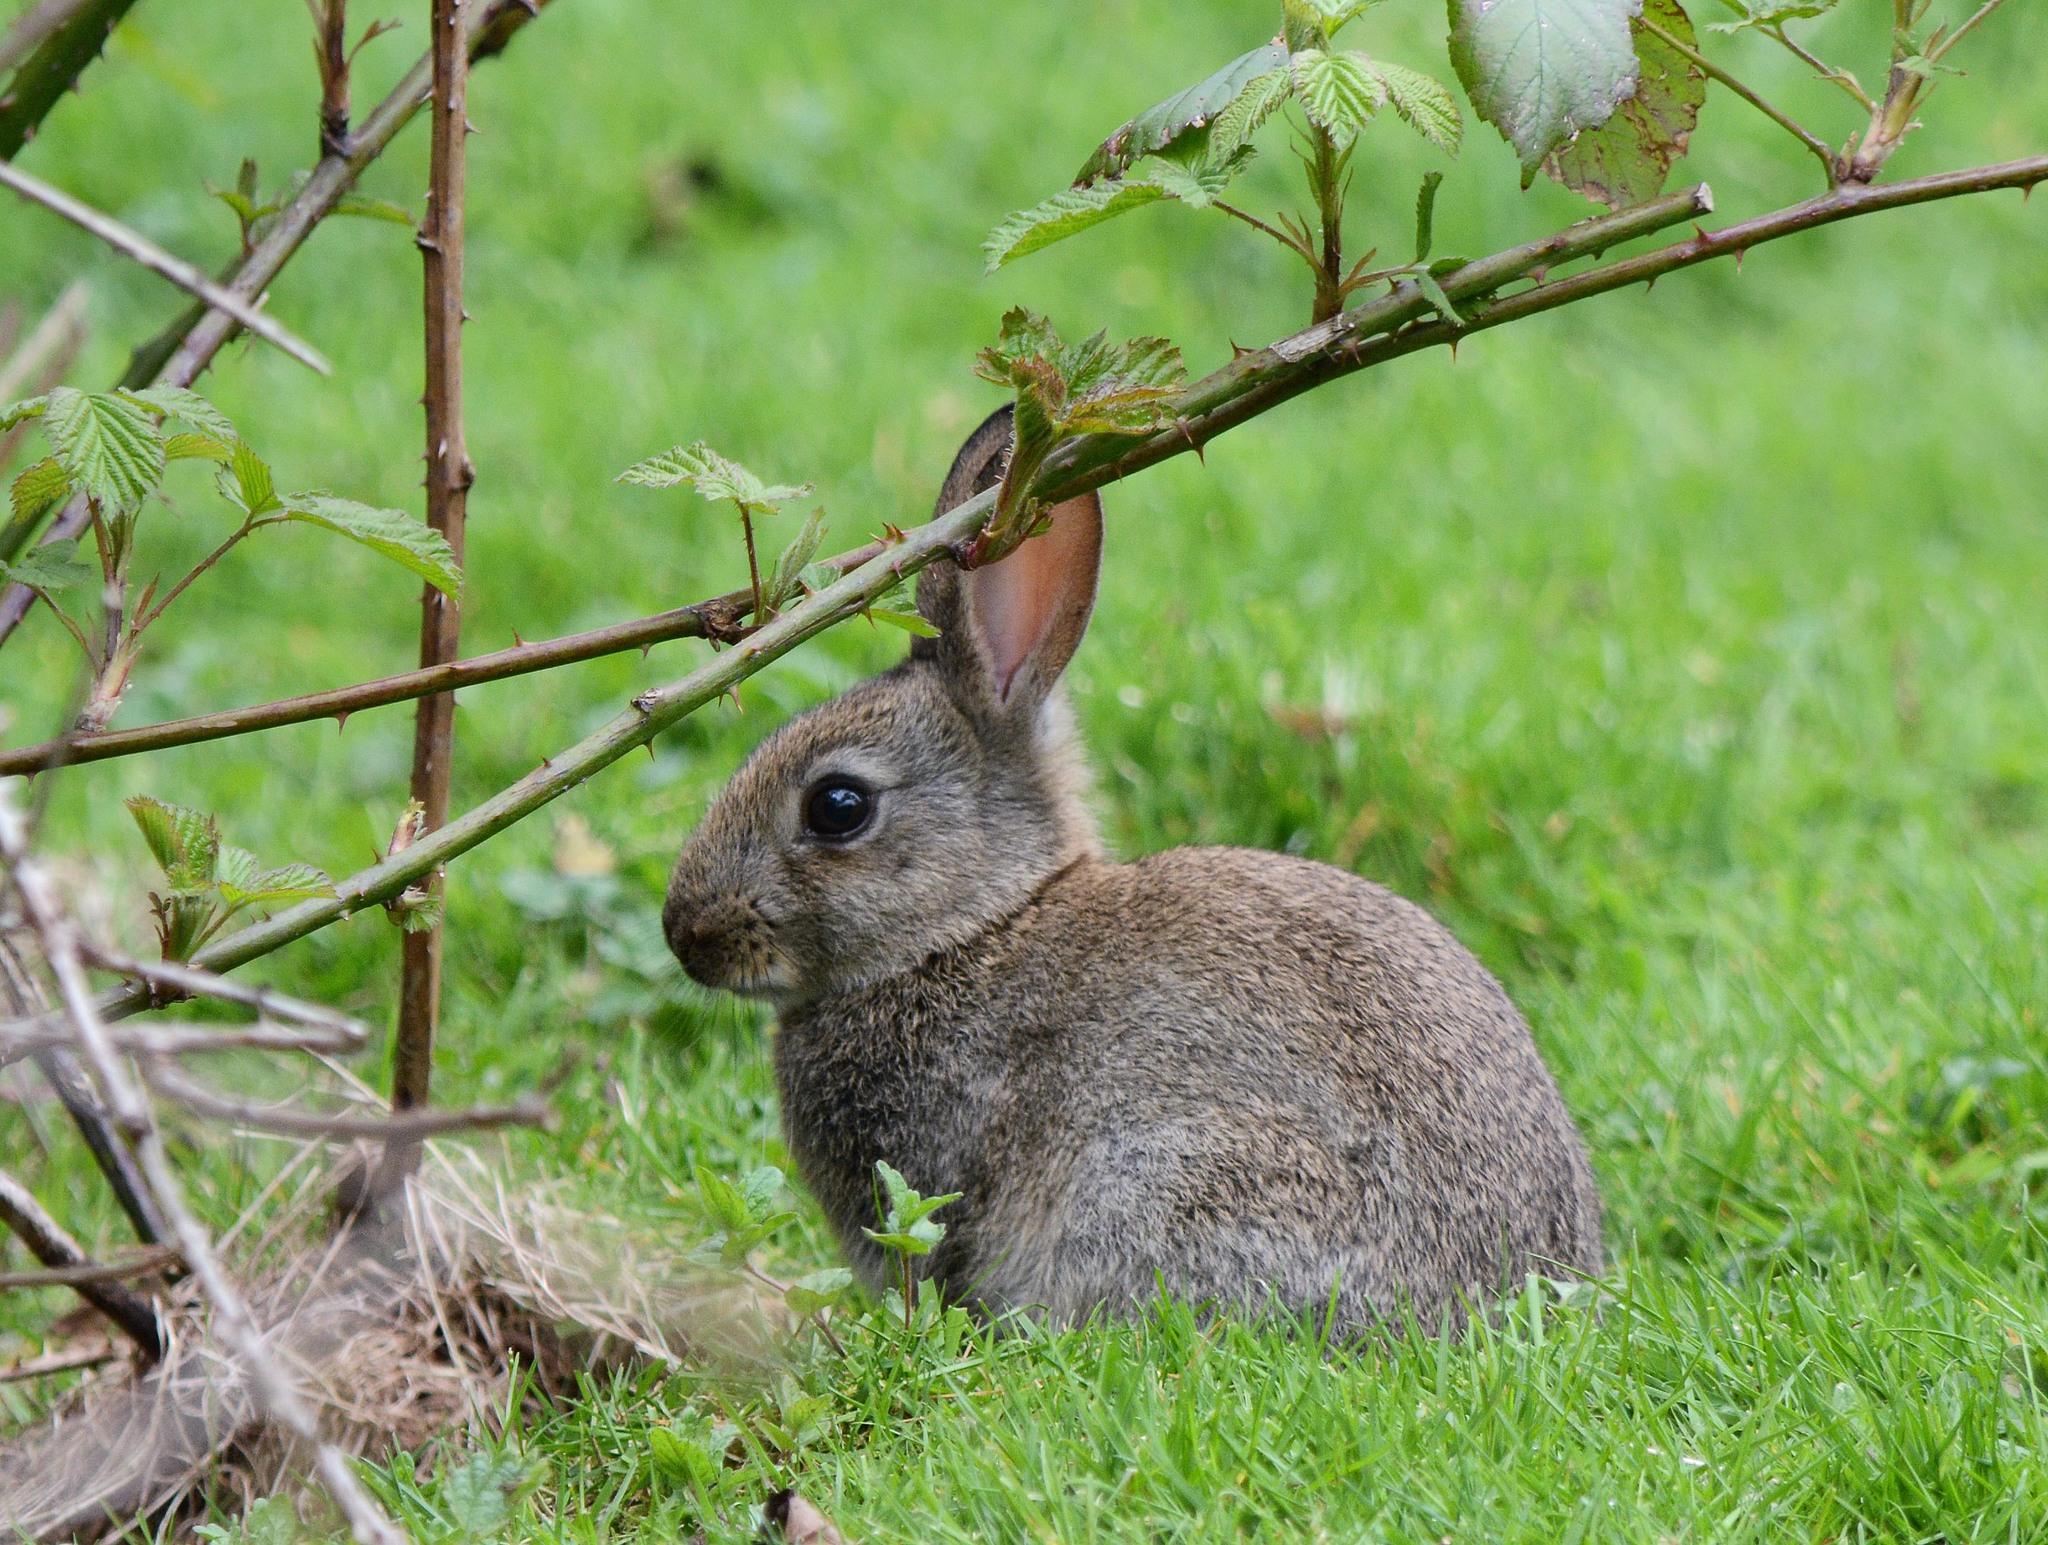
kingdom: Animalia
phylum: Chordata
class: Mammalia
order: Lagomorpha
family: Leporidae
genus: Oryctolagus
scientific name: Oryctolagus cuniculus
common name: European rabbit
